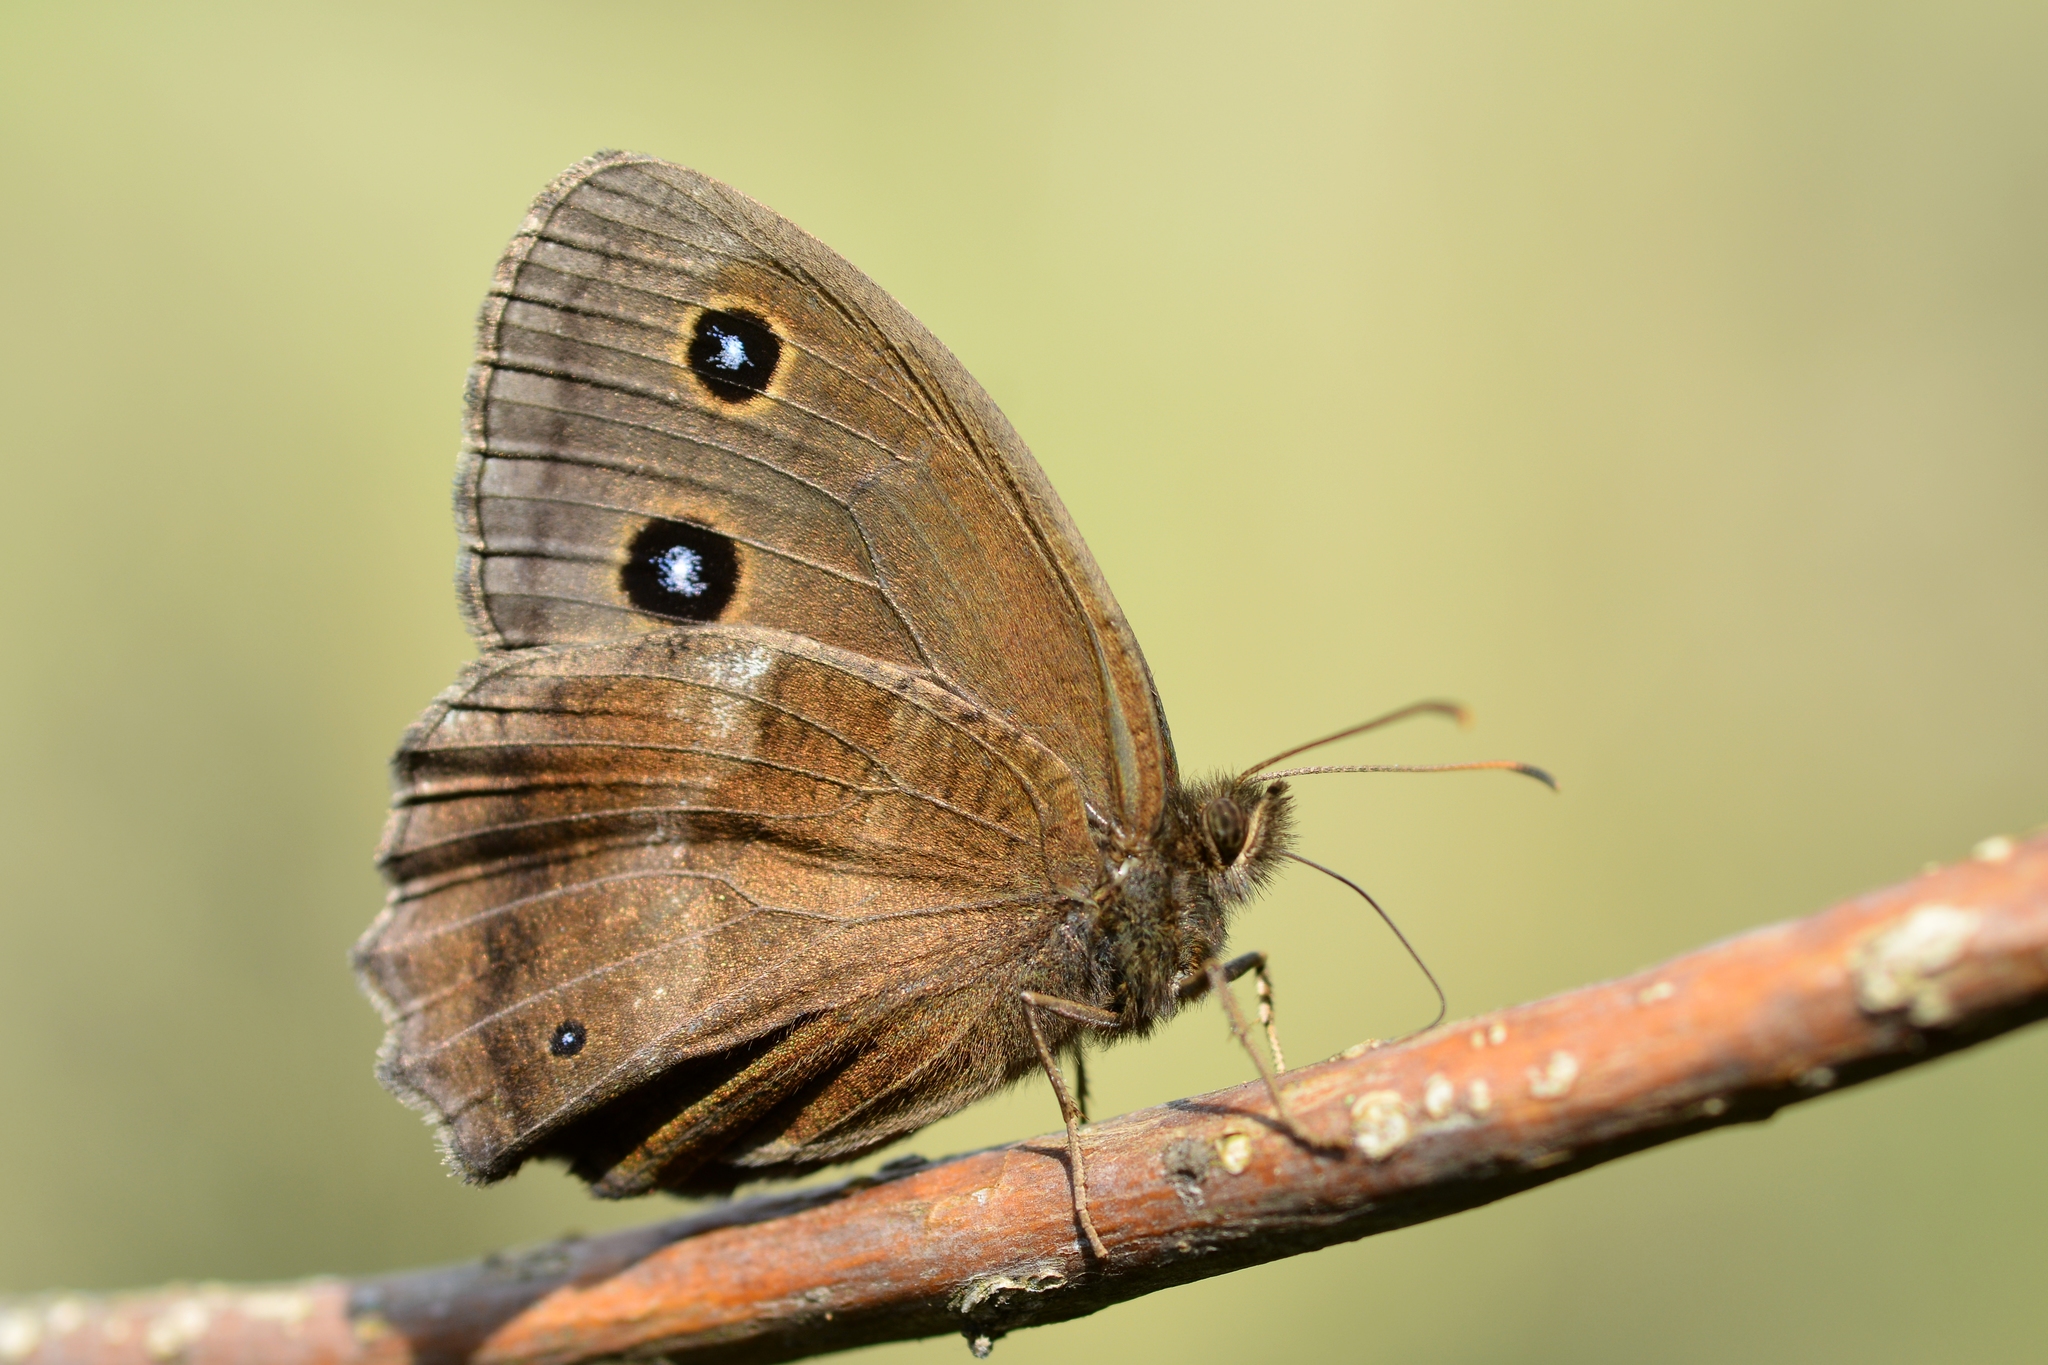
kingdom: Animalia
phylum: Arthropoda
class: Insecta
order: Lepidoptera
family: Nymphalidae
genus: Minois
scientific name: Minois dryas
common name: Dryad
